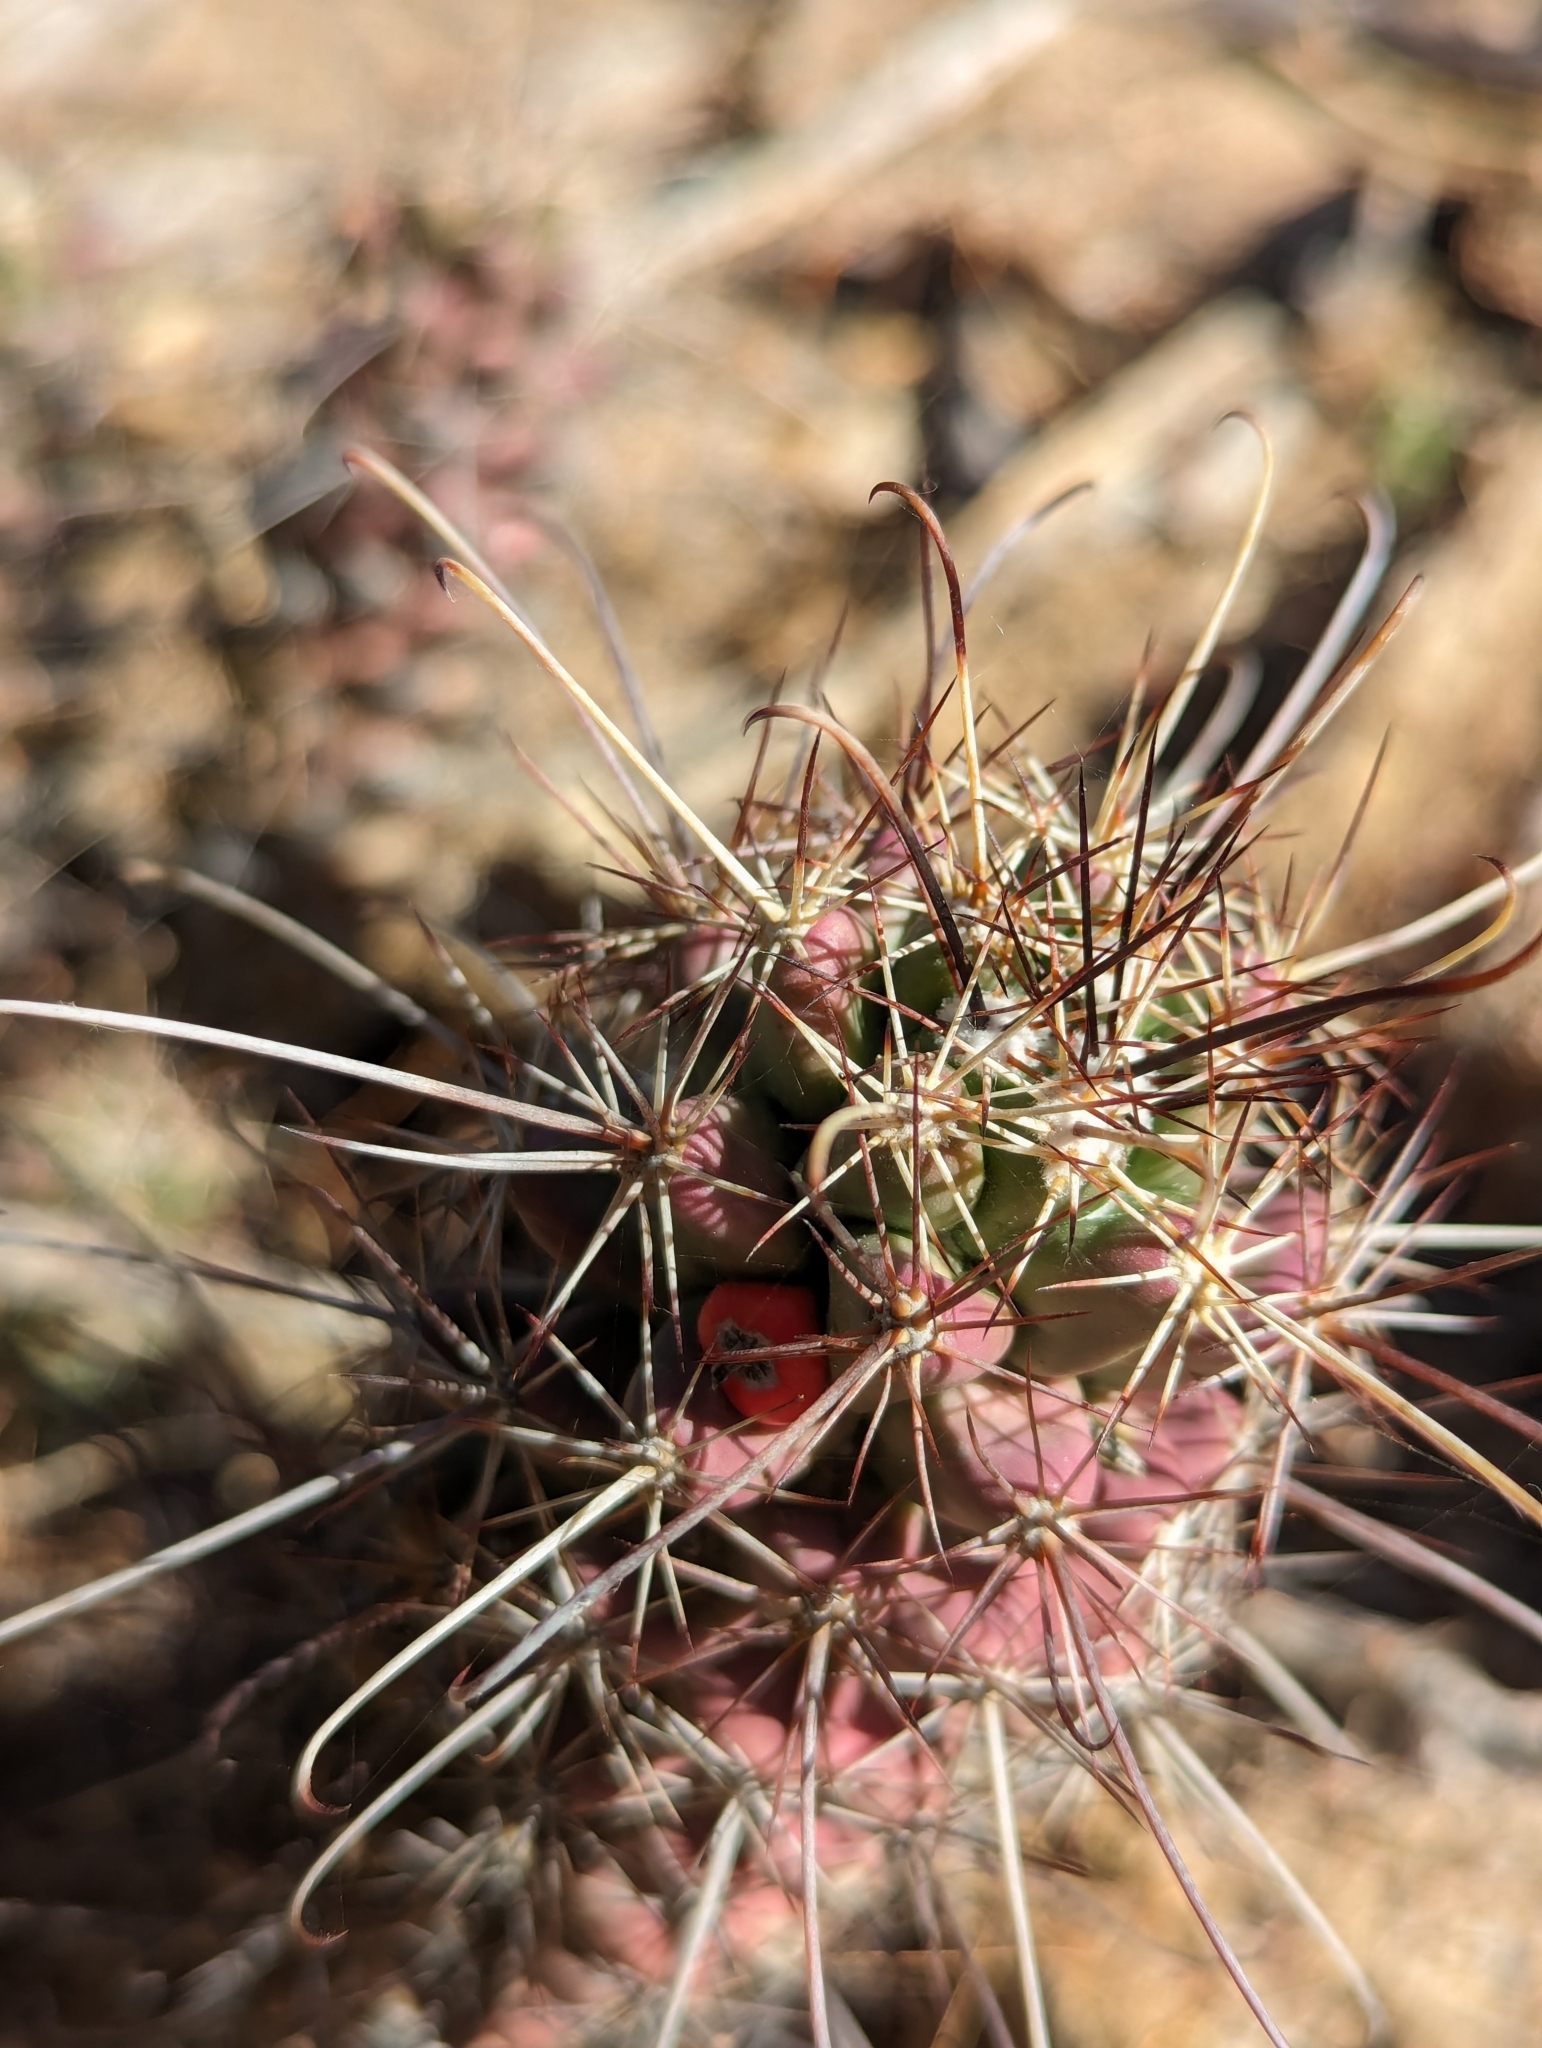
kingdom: Plantae
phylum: Tracheophyta
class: Magnoliopsida
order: Caryophyllales
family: Cactaceae
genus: Cochemiea
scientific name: Cochemiea poselgeri
